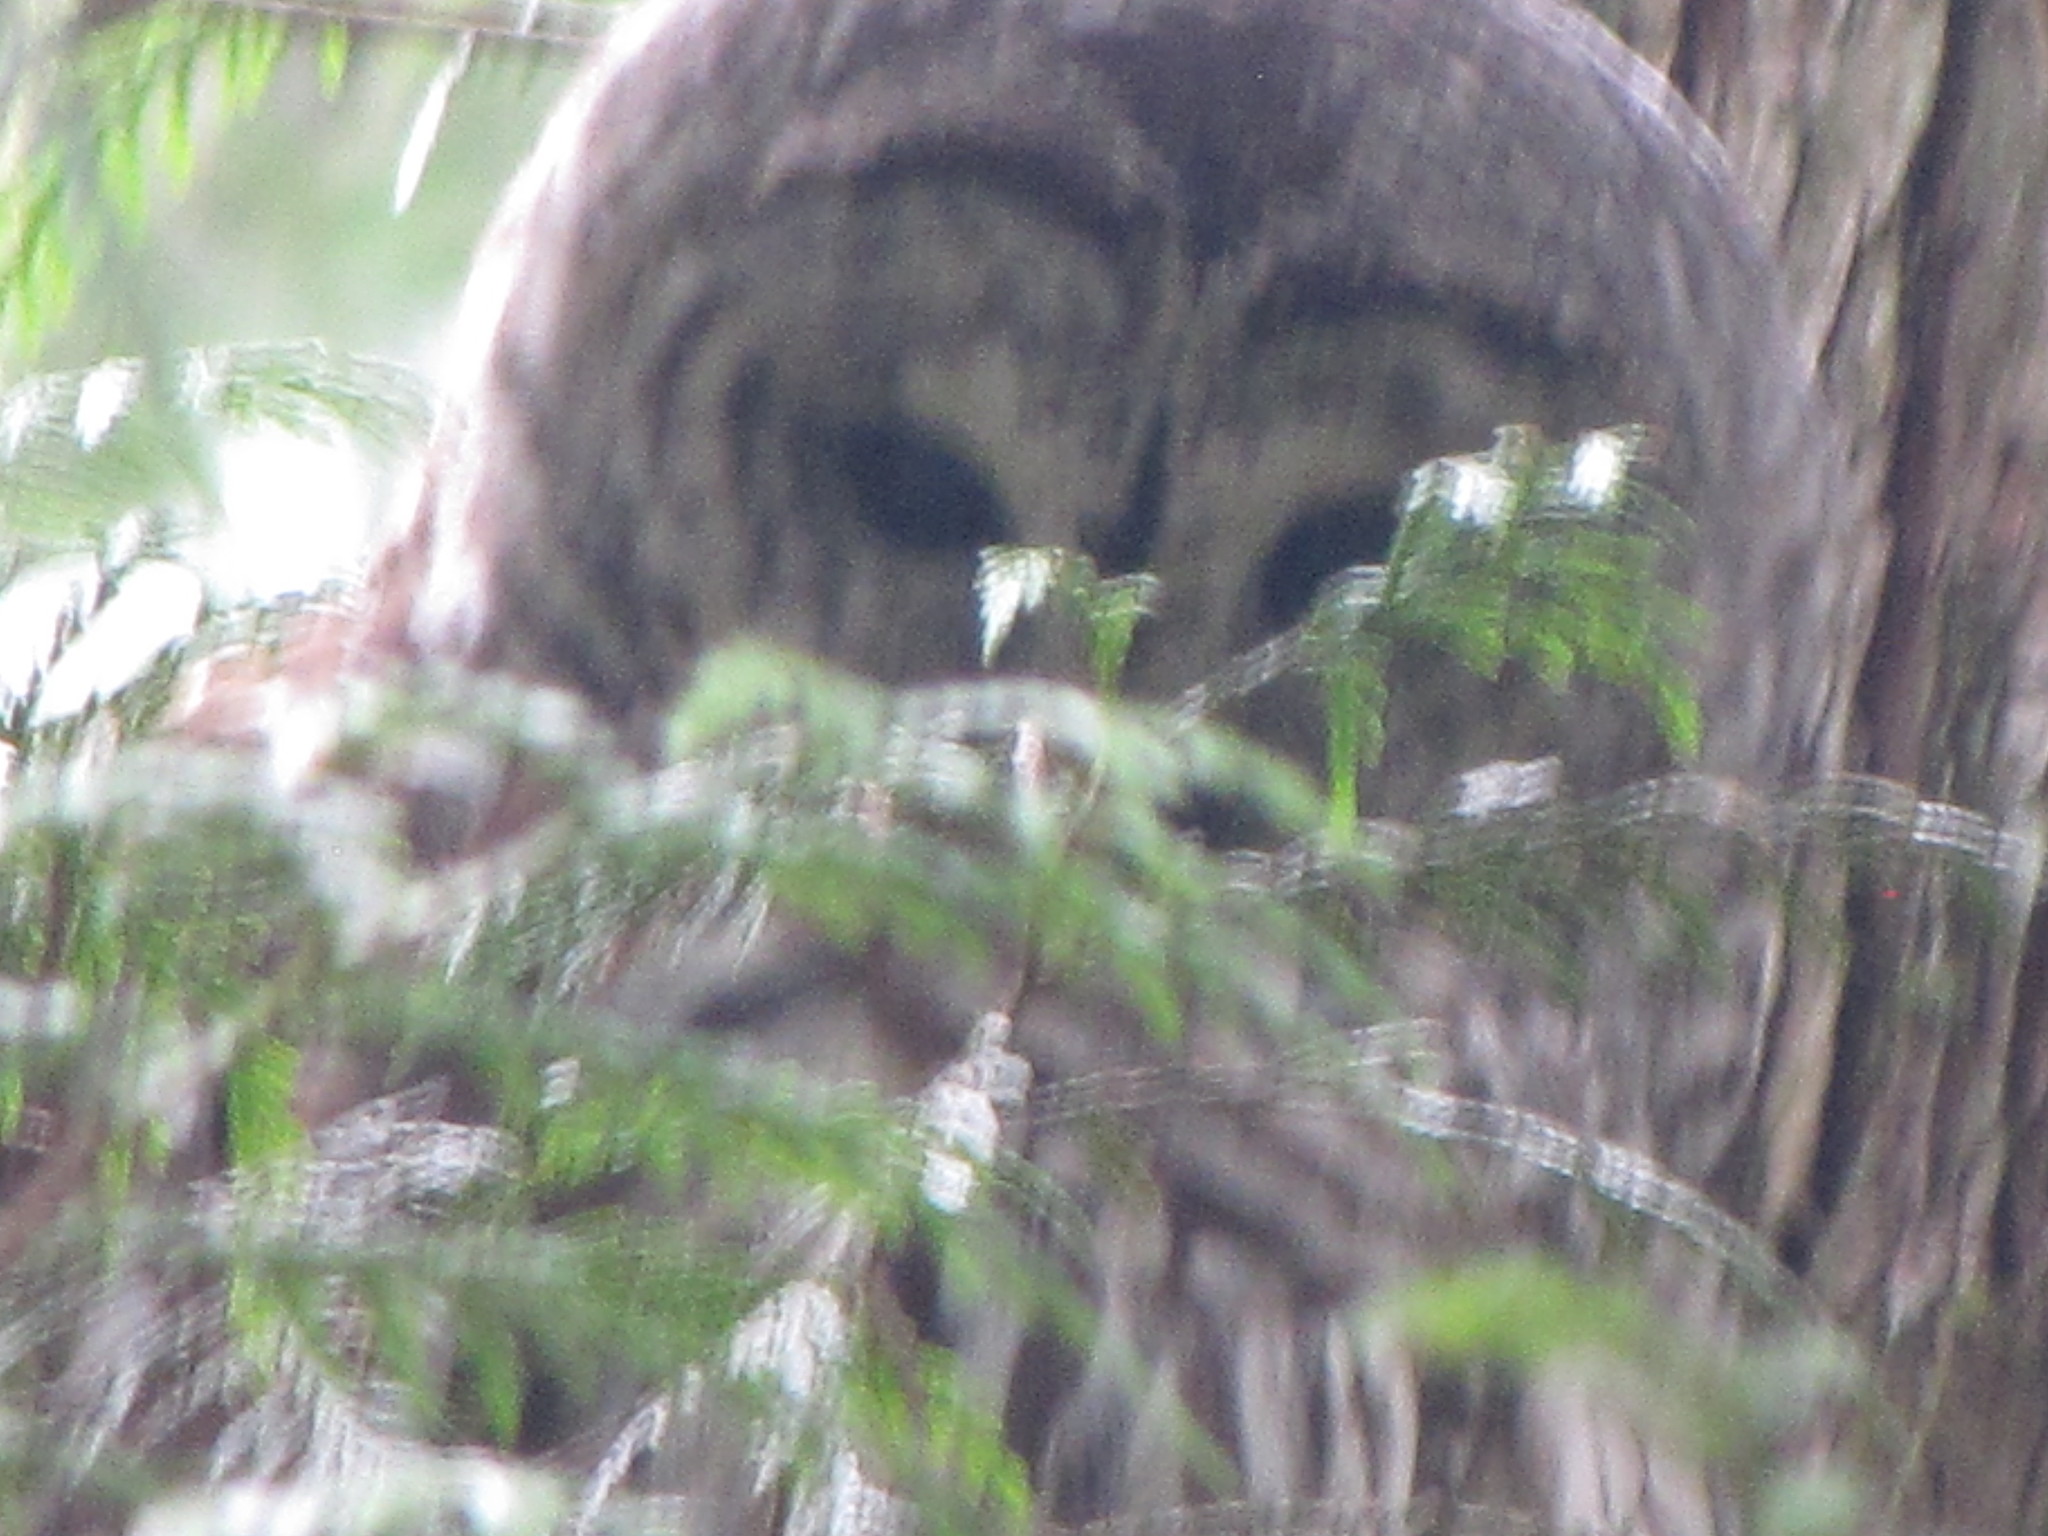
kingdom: Animalia
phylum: Chordata
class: Aves
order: Strigiformes
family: Strigidae
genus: Strix
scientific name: Strix varia
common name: Barred owl
